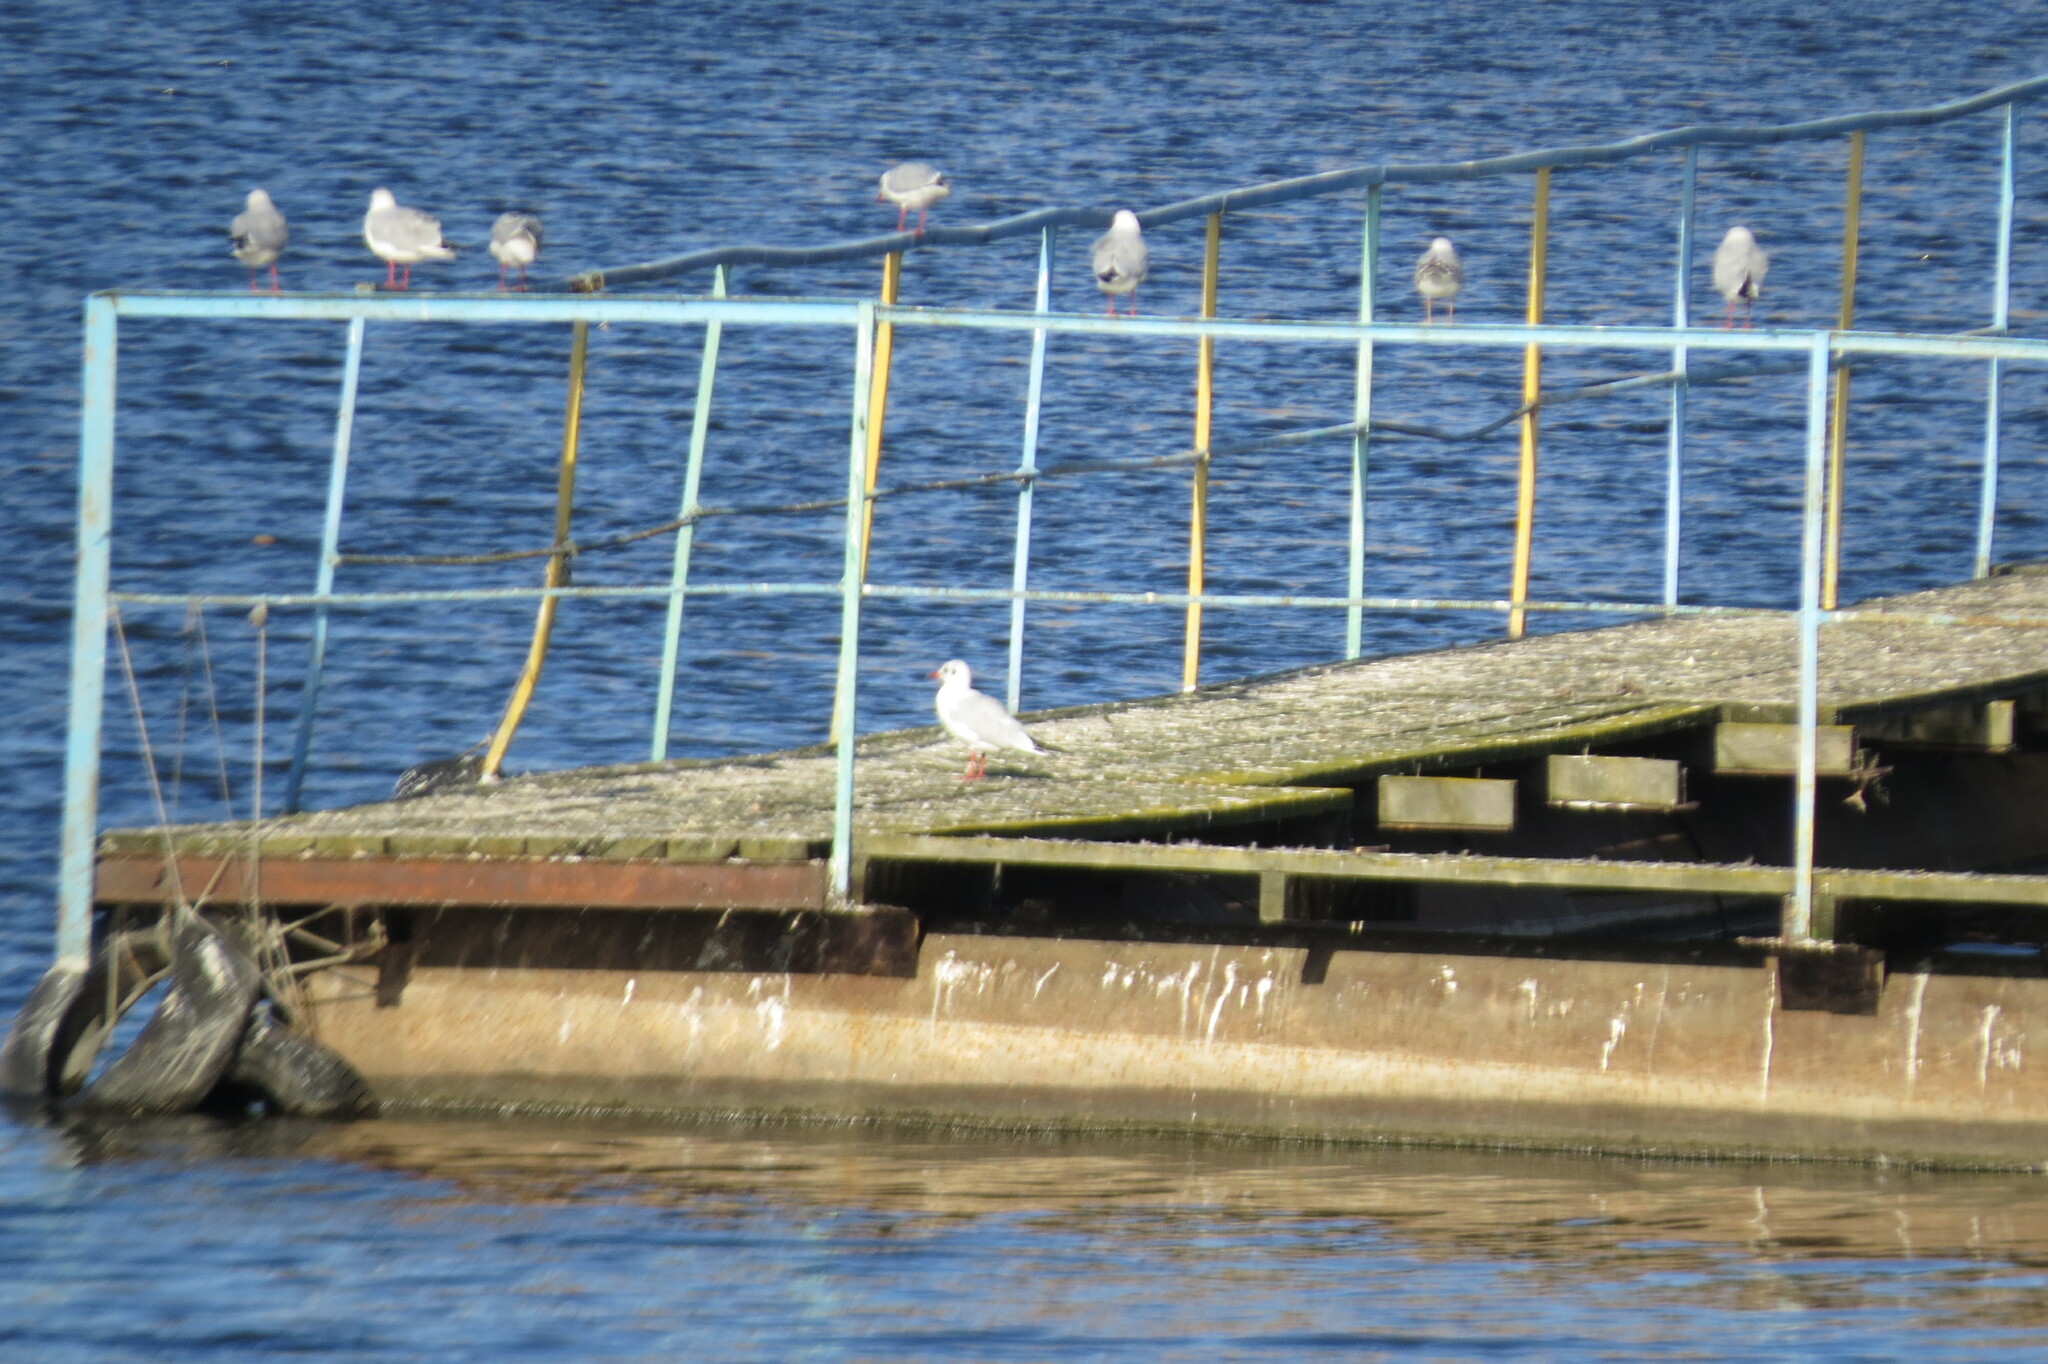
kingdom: Animalia
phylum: Chordata
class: Aves
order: Charadriiformes
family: Laridae
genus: Chroicocephalus
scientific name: Chroicocephalus ridibundus
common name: Black-headed gull
